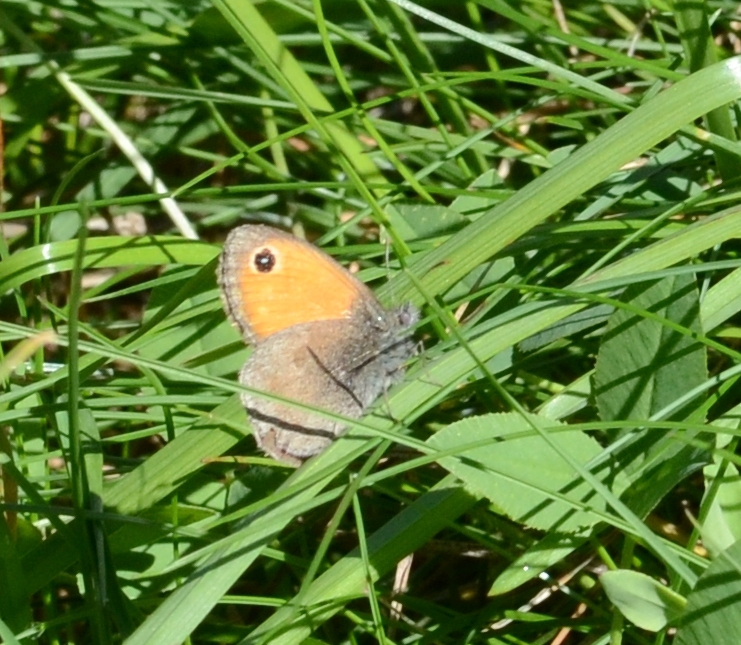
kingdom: Animalia
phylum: Arthropoda
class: Insecta
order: Lepidoptera
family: Nymphalidae
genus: Coenonympha
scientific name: Coenonympha pamphilus
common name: Small heath
